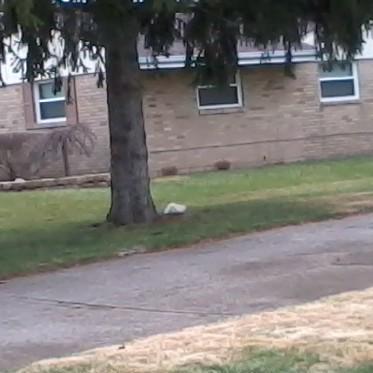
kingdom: Animalia
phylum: Chordata
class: Mammalia
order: Rodentia
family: Sciuridae
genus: Sciurus
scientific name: Sciurus carolinensis
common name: Eastern gray squirrel
